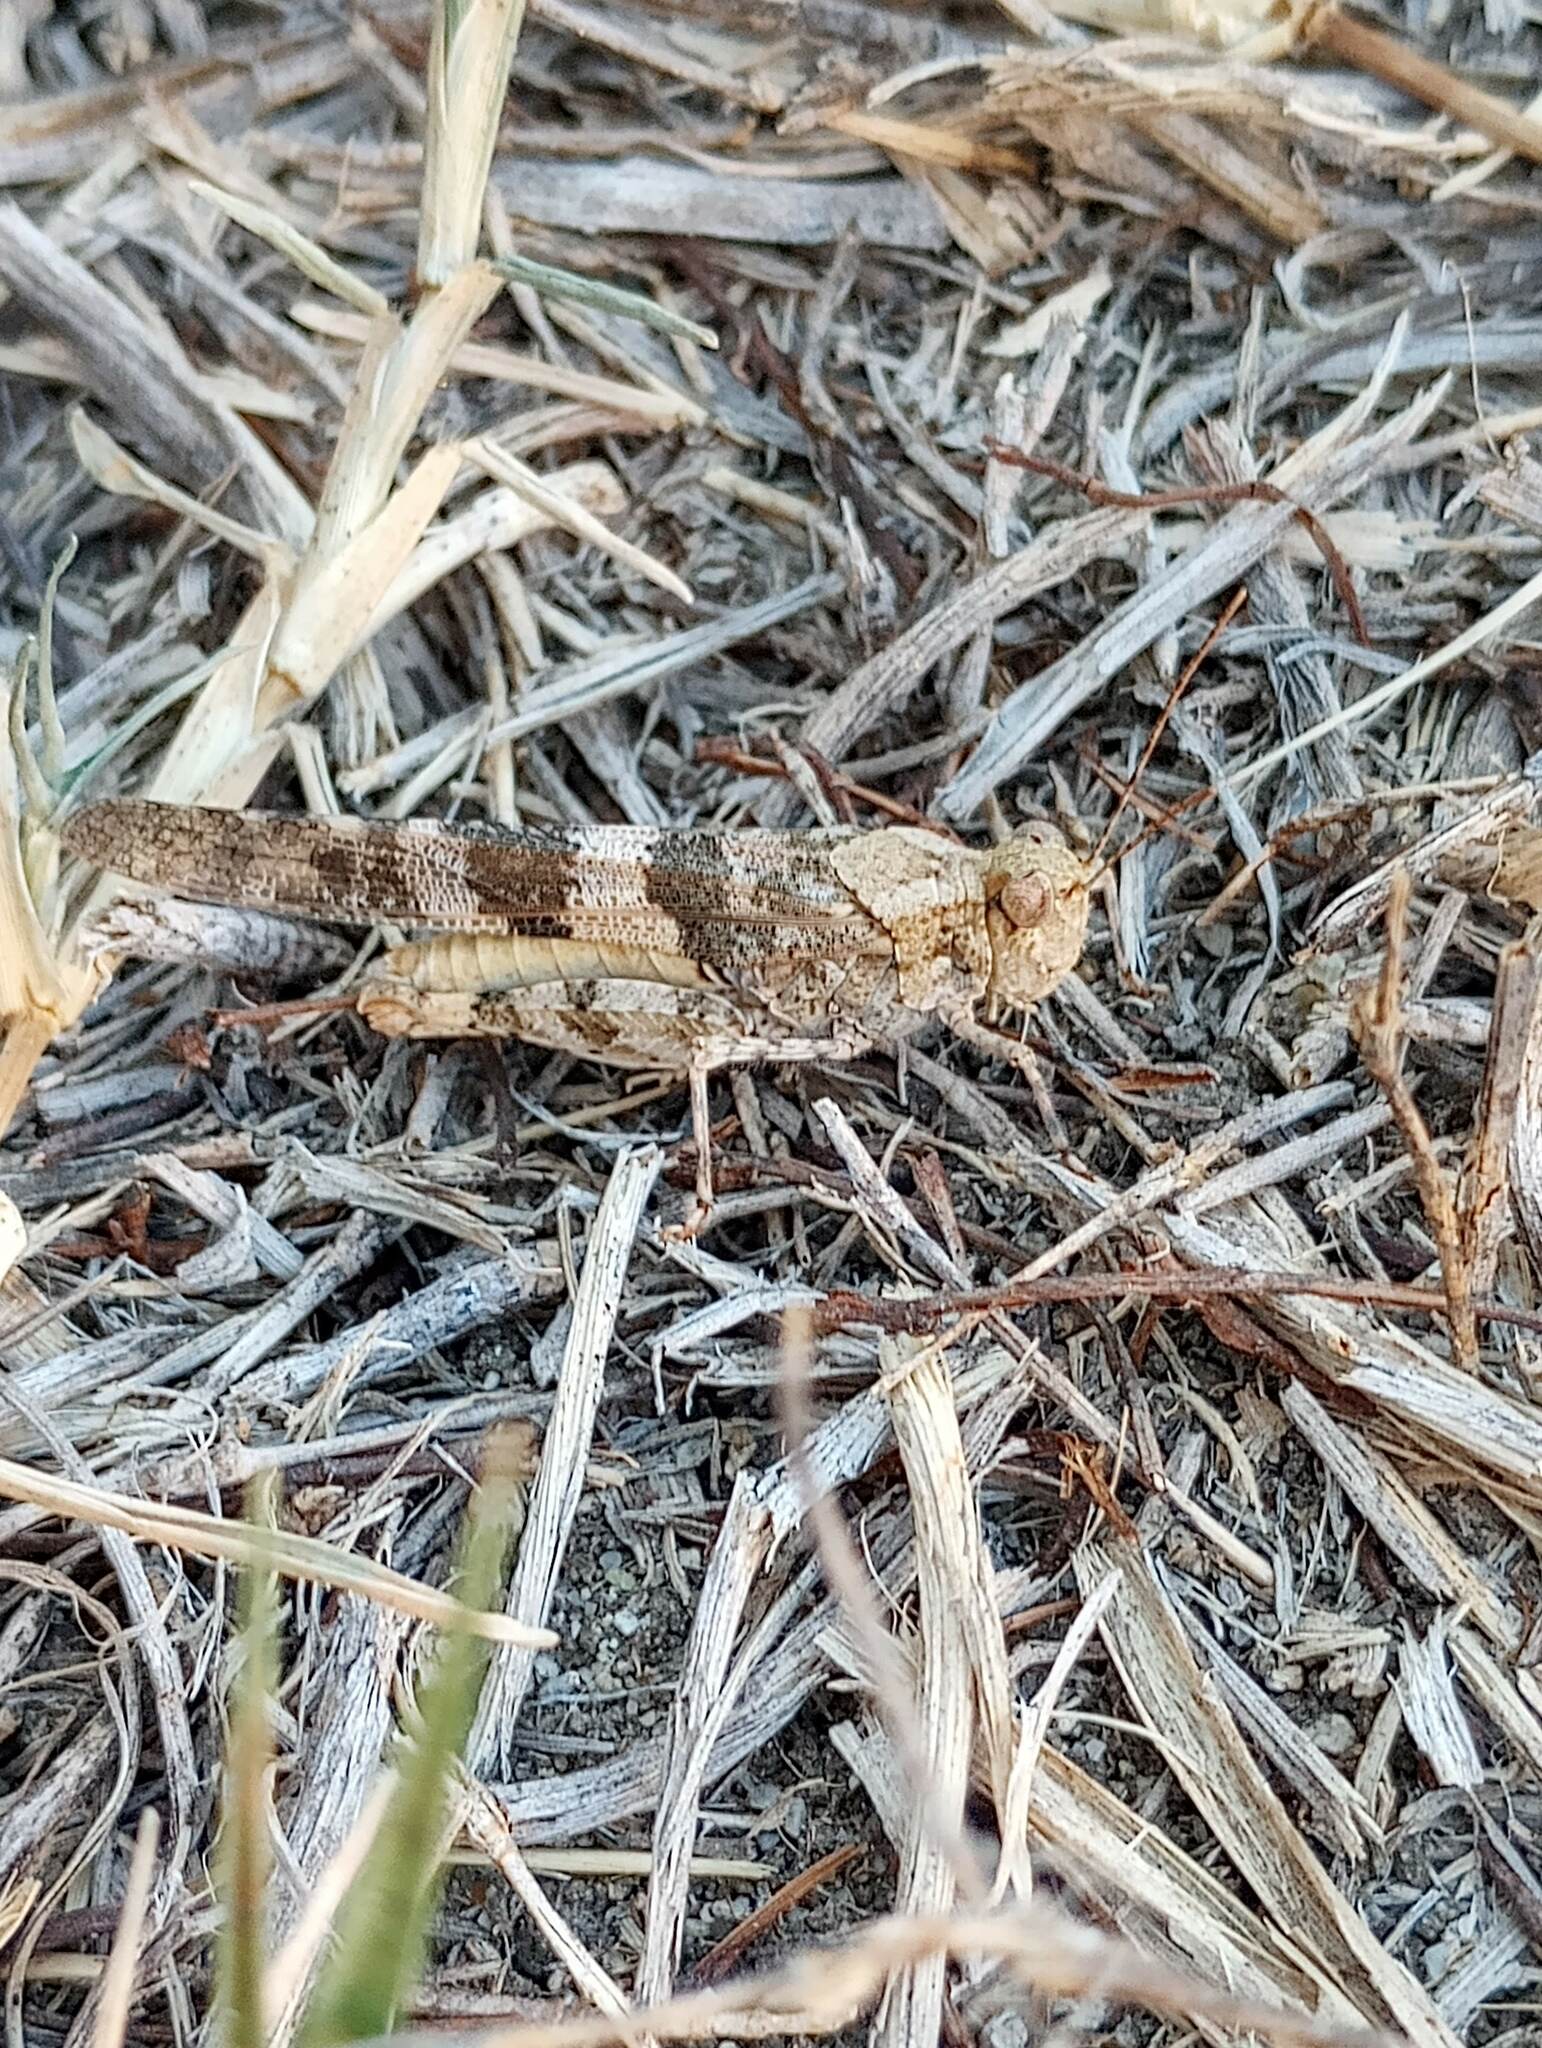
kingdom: Animalia
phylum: Arthropoda
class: Insecta
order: Orthoptera
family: Acrididae
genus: Trimerotropis
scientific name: Trimerotropis pallidipennis
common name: Pallid-winged grasshopper
